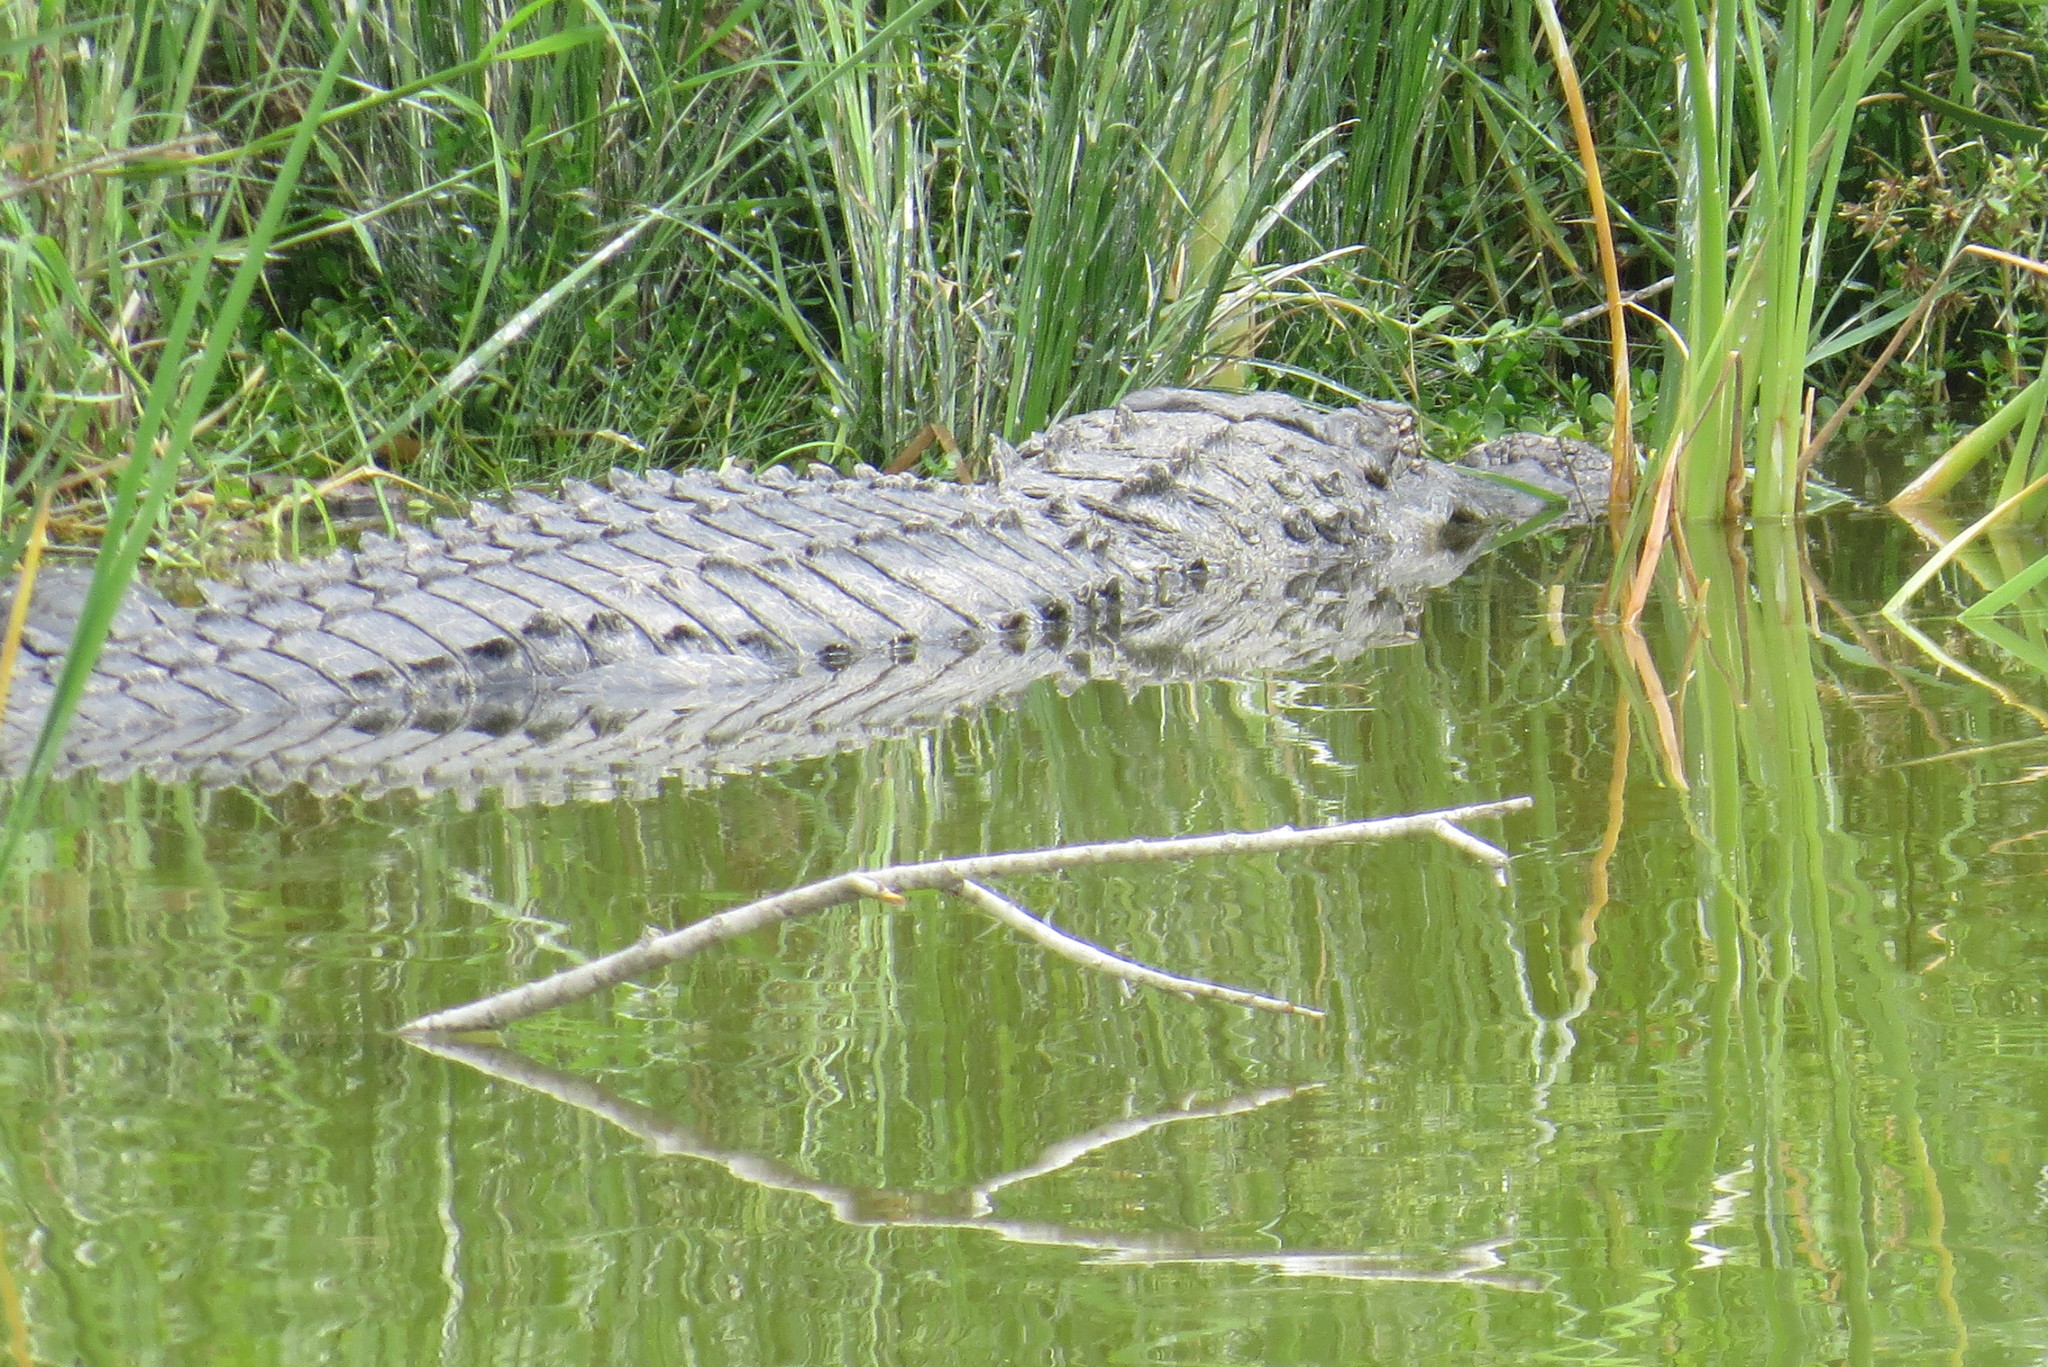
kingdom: Animalia
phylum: Chordata
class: Crocodylia
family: Alligatoridae
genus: Alligator
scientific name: Alligator mississippiensis
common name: American alligator
